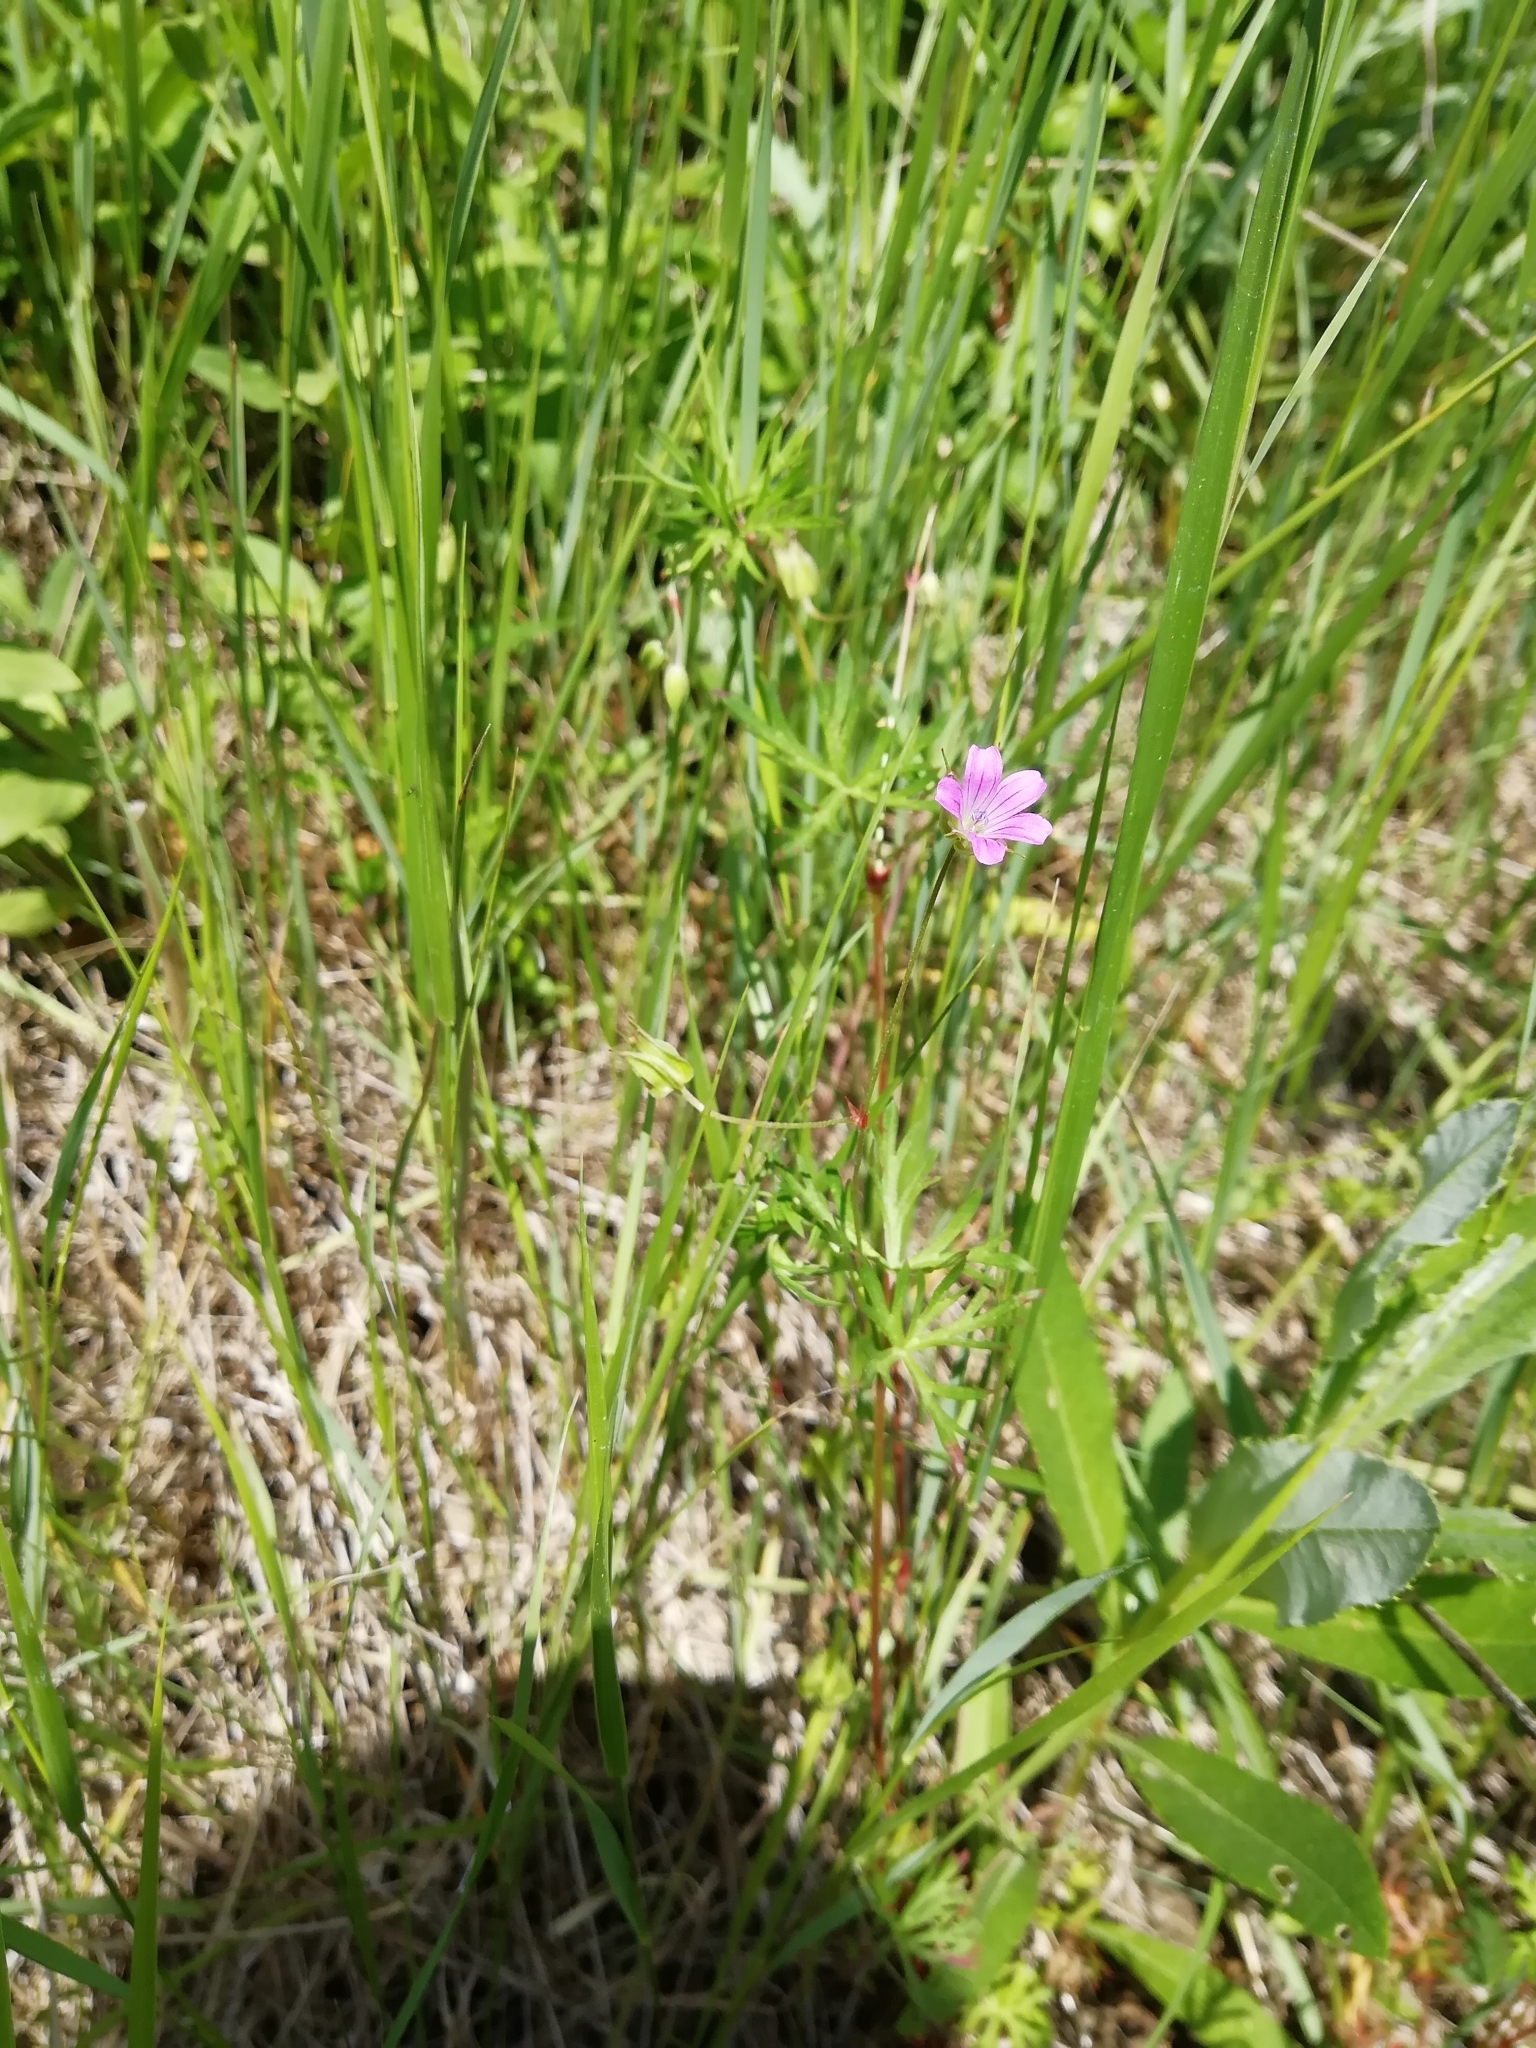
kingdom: Plantae
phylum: Tracheophyta
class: Magnoliopsida
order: Geraniales
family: Geraniaceae
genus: Geranium
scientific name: Geranium columbinum
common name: Long-stalked crane's-bill
